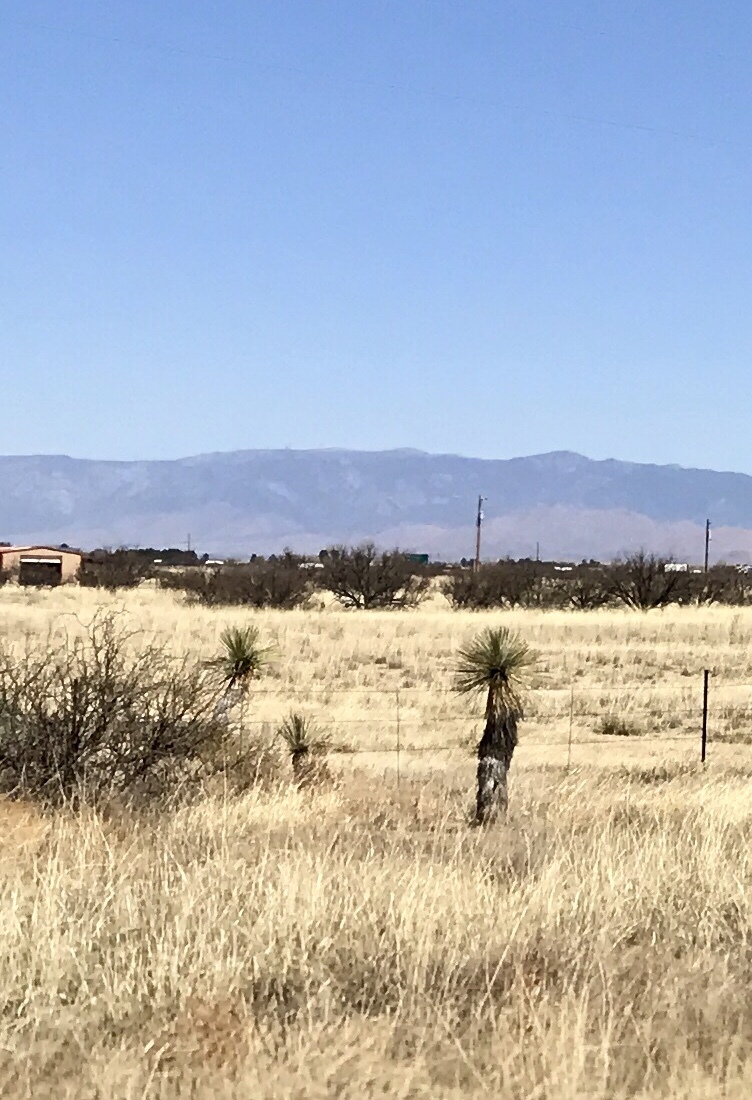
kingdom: Plantae
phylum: Tracheophyta
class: Liliopsida
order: Asparagales
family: Asparagaceae
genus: Yucca
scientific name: Yucca elata
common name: Palmella
